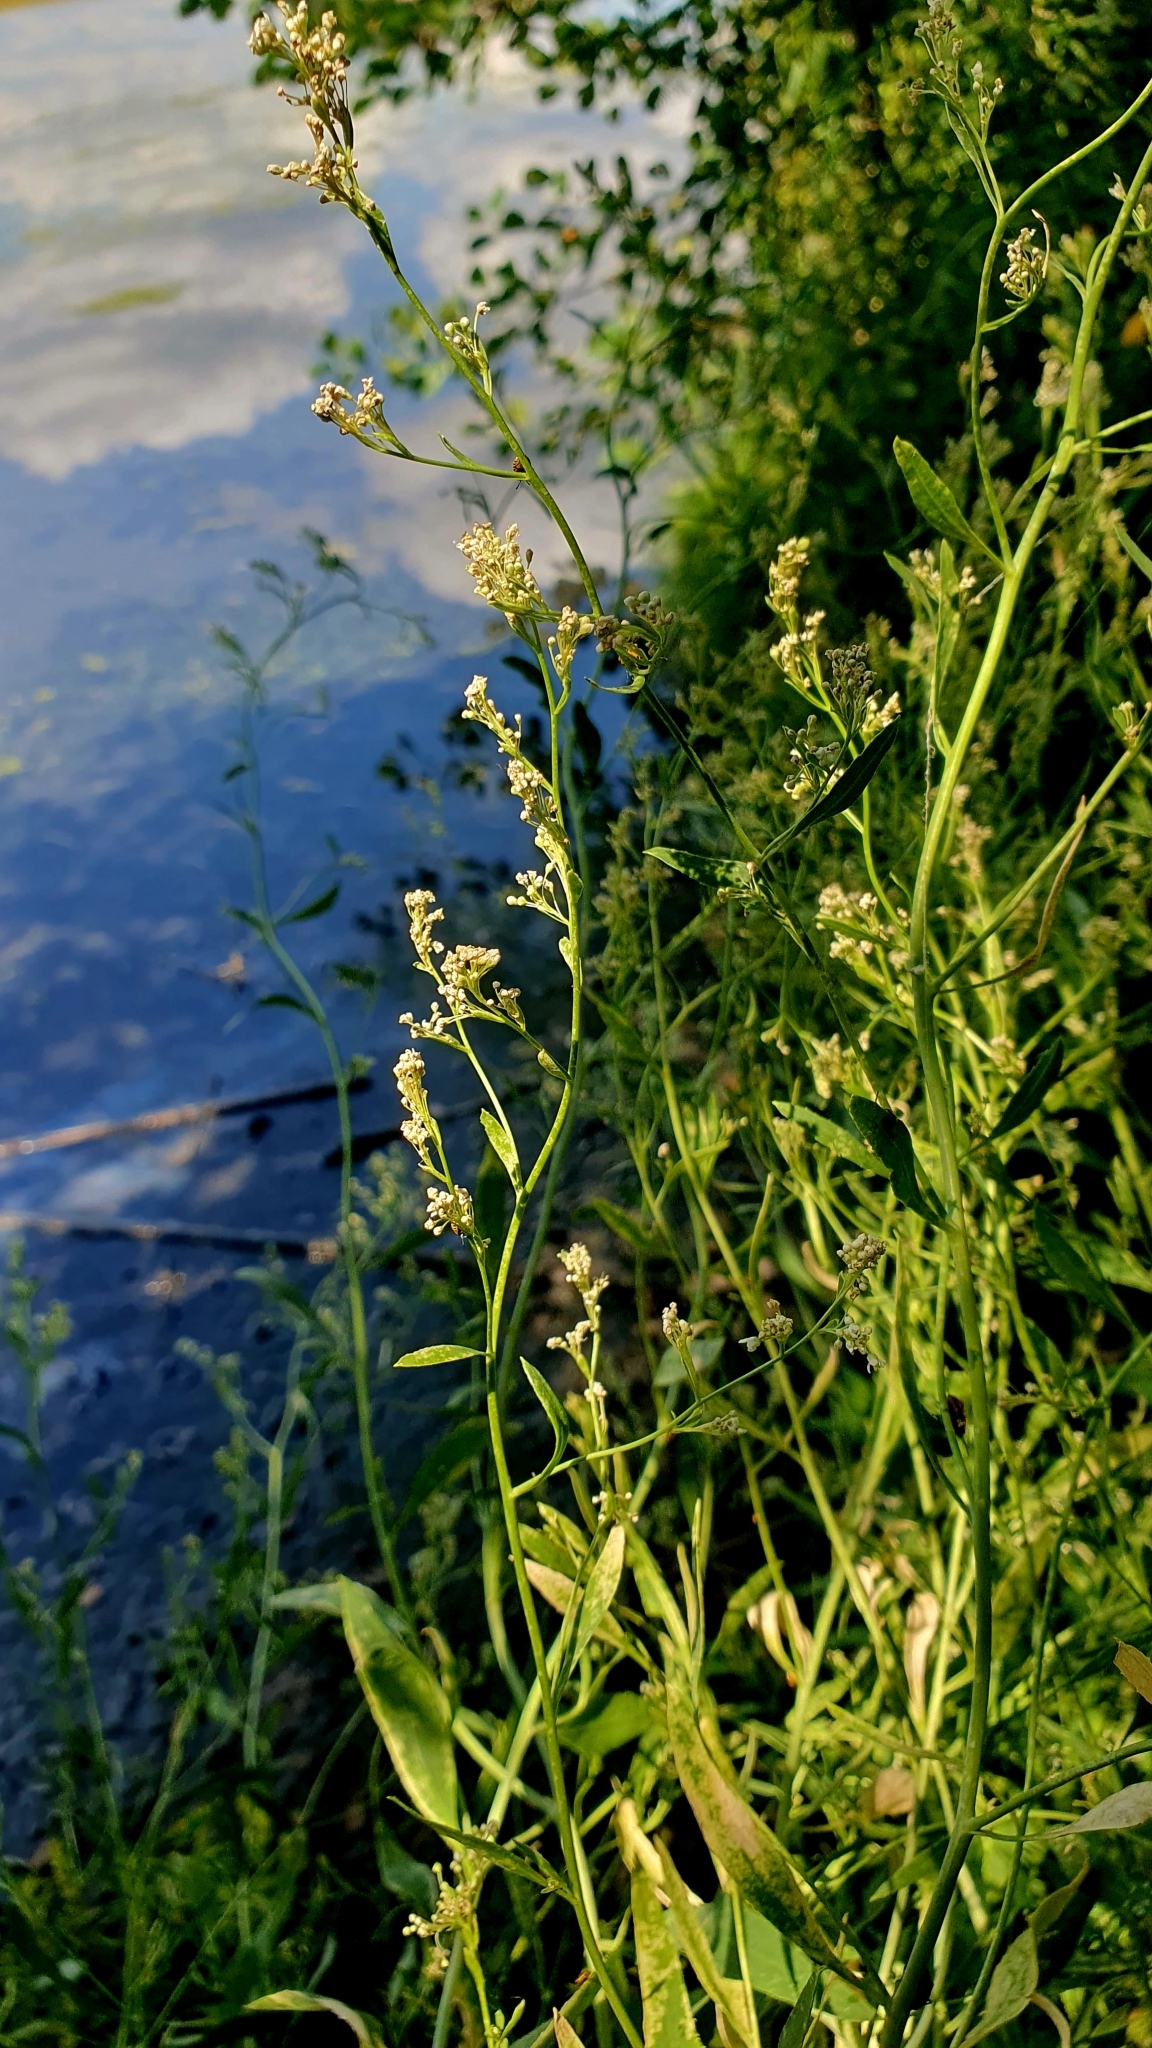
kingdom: Plantae
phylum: Tracheophyta
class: Magnoliopsida
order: Brassicales
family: Brassicaceae
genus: Lepidium
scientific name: Lepidium latifolium
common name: Dittander
